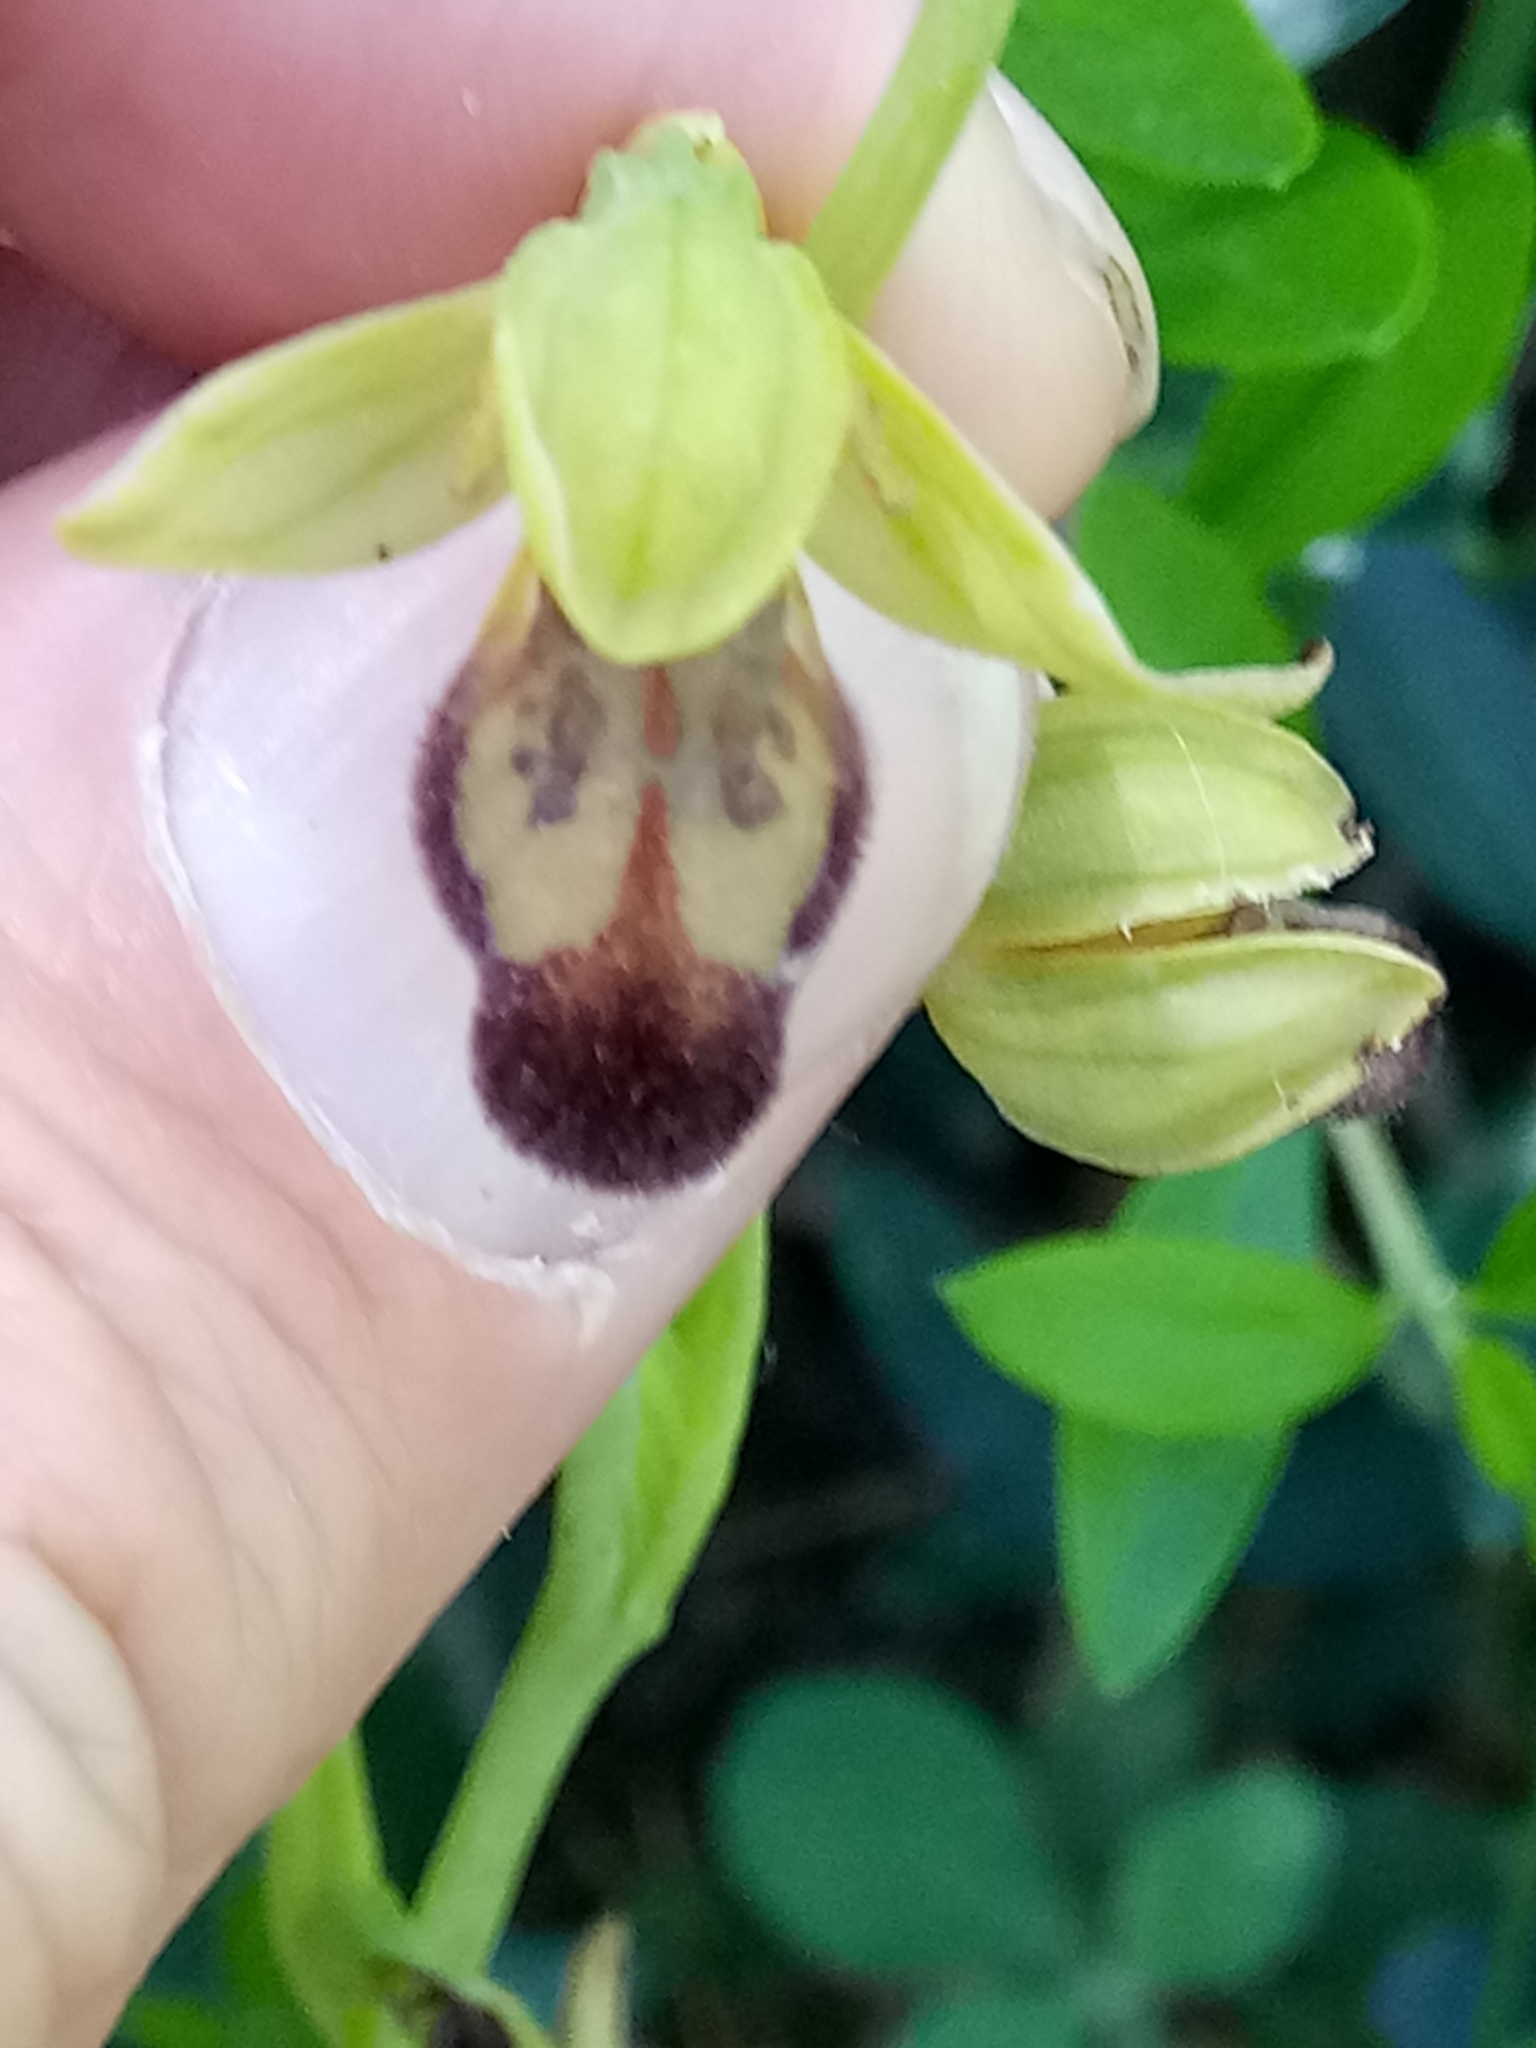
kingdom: Plantae
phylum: Tracheophyta
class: Liliopsida
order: Asparagales
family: Orchidaceae
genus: Ophrys
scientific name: Ophrys fusca
